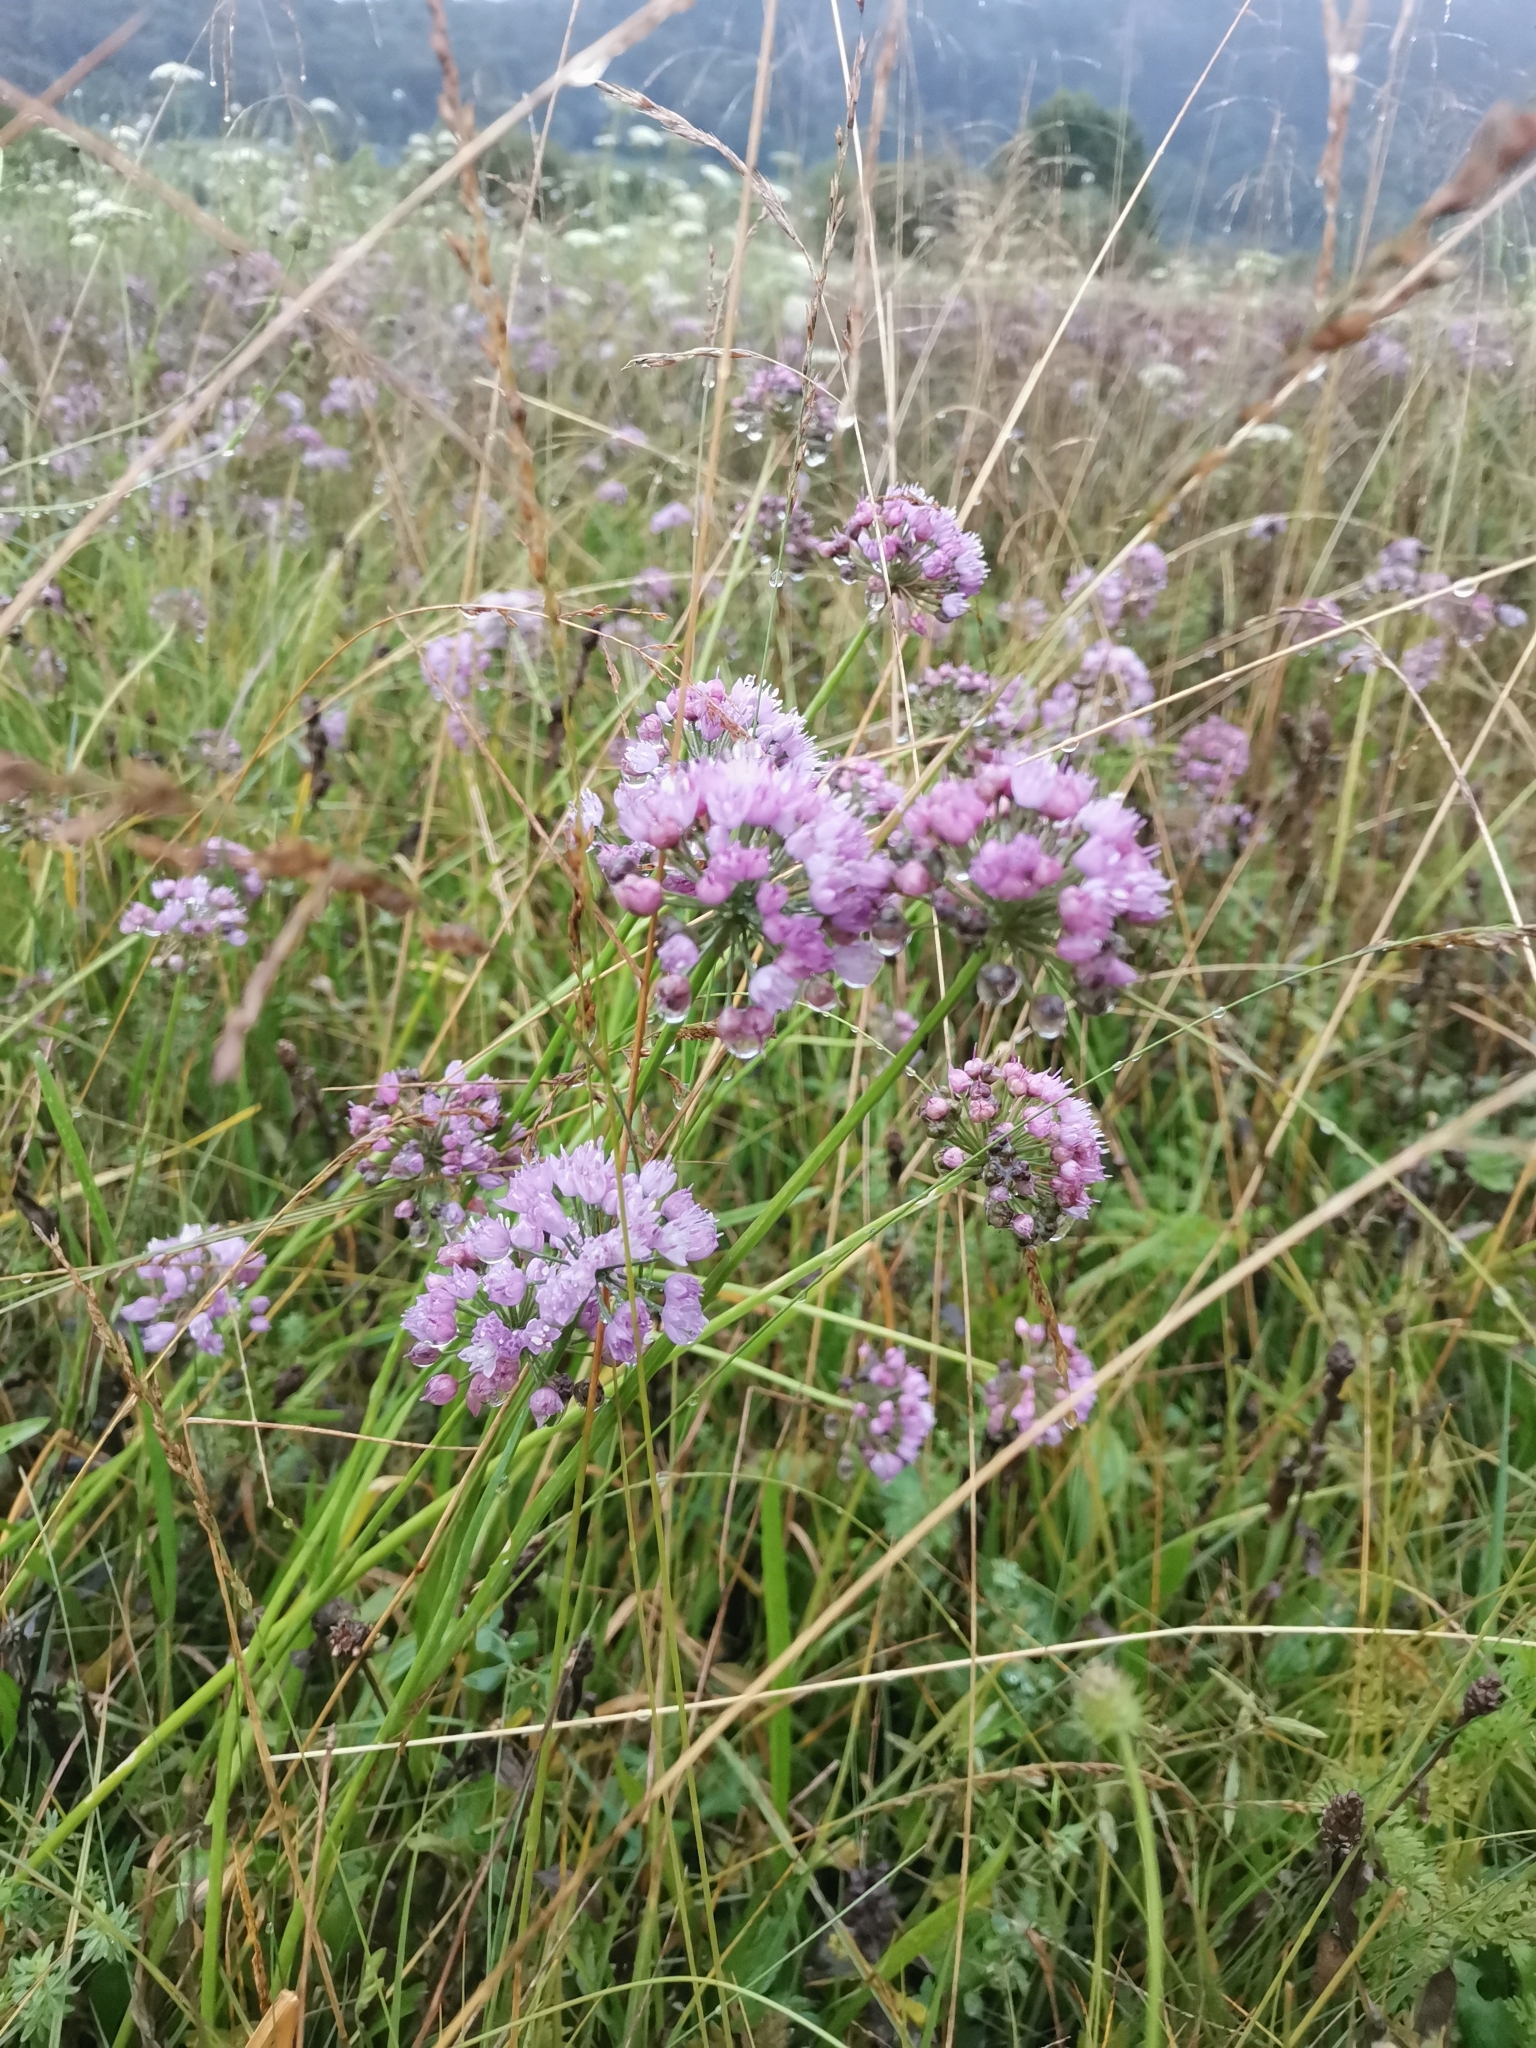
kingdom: Plantae
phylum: Tracheophyta
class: Liliopsida
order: Asparagales
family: Amaryllidaceae
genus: Allium
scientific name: Allium angulosum
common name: Mouse garlic
